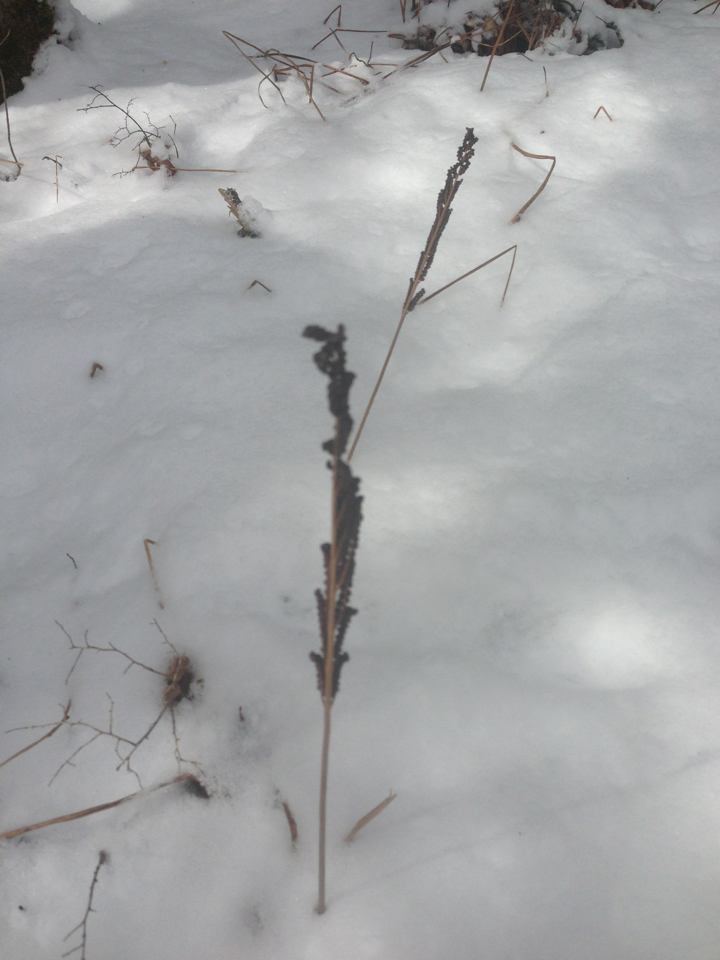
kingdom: Plantae
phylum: Tracheophyta
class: Polypodiopsida
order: Polypodiales
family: Onocleaceae
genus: Onoclea
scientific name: Onoclea sensibilis
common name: Sensitive fern
